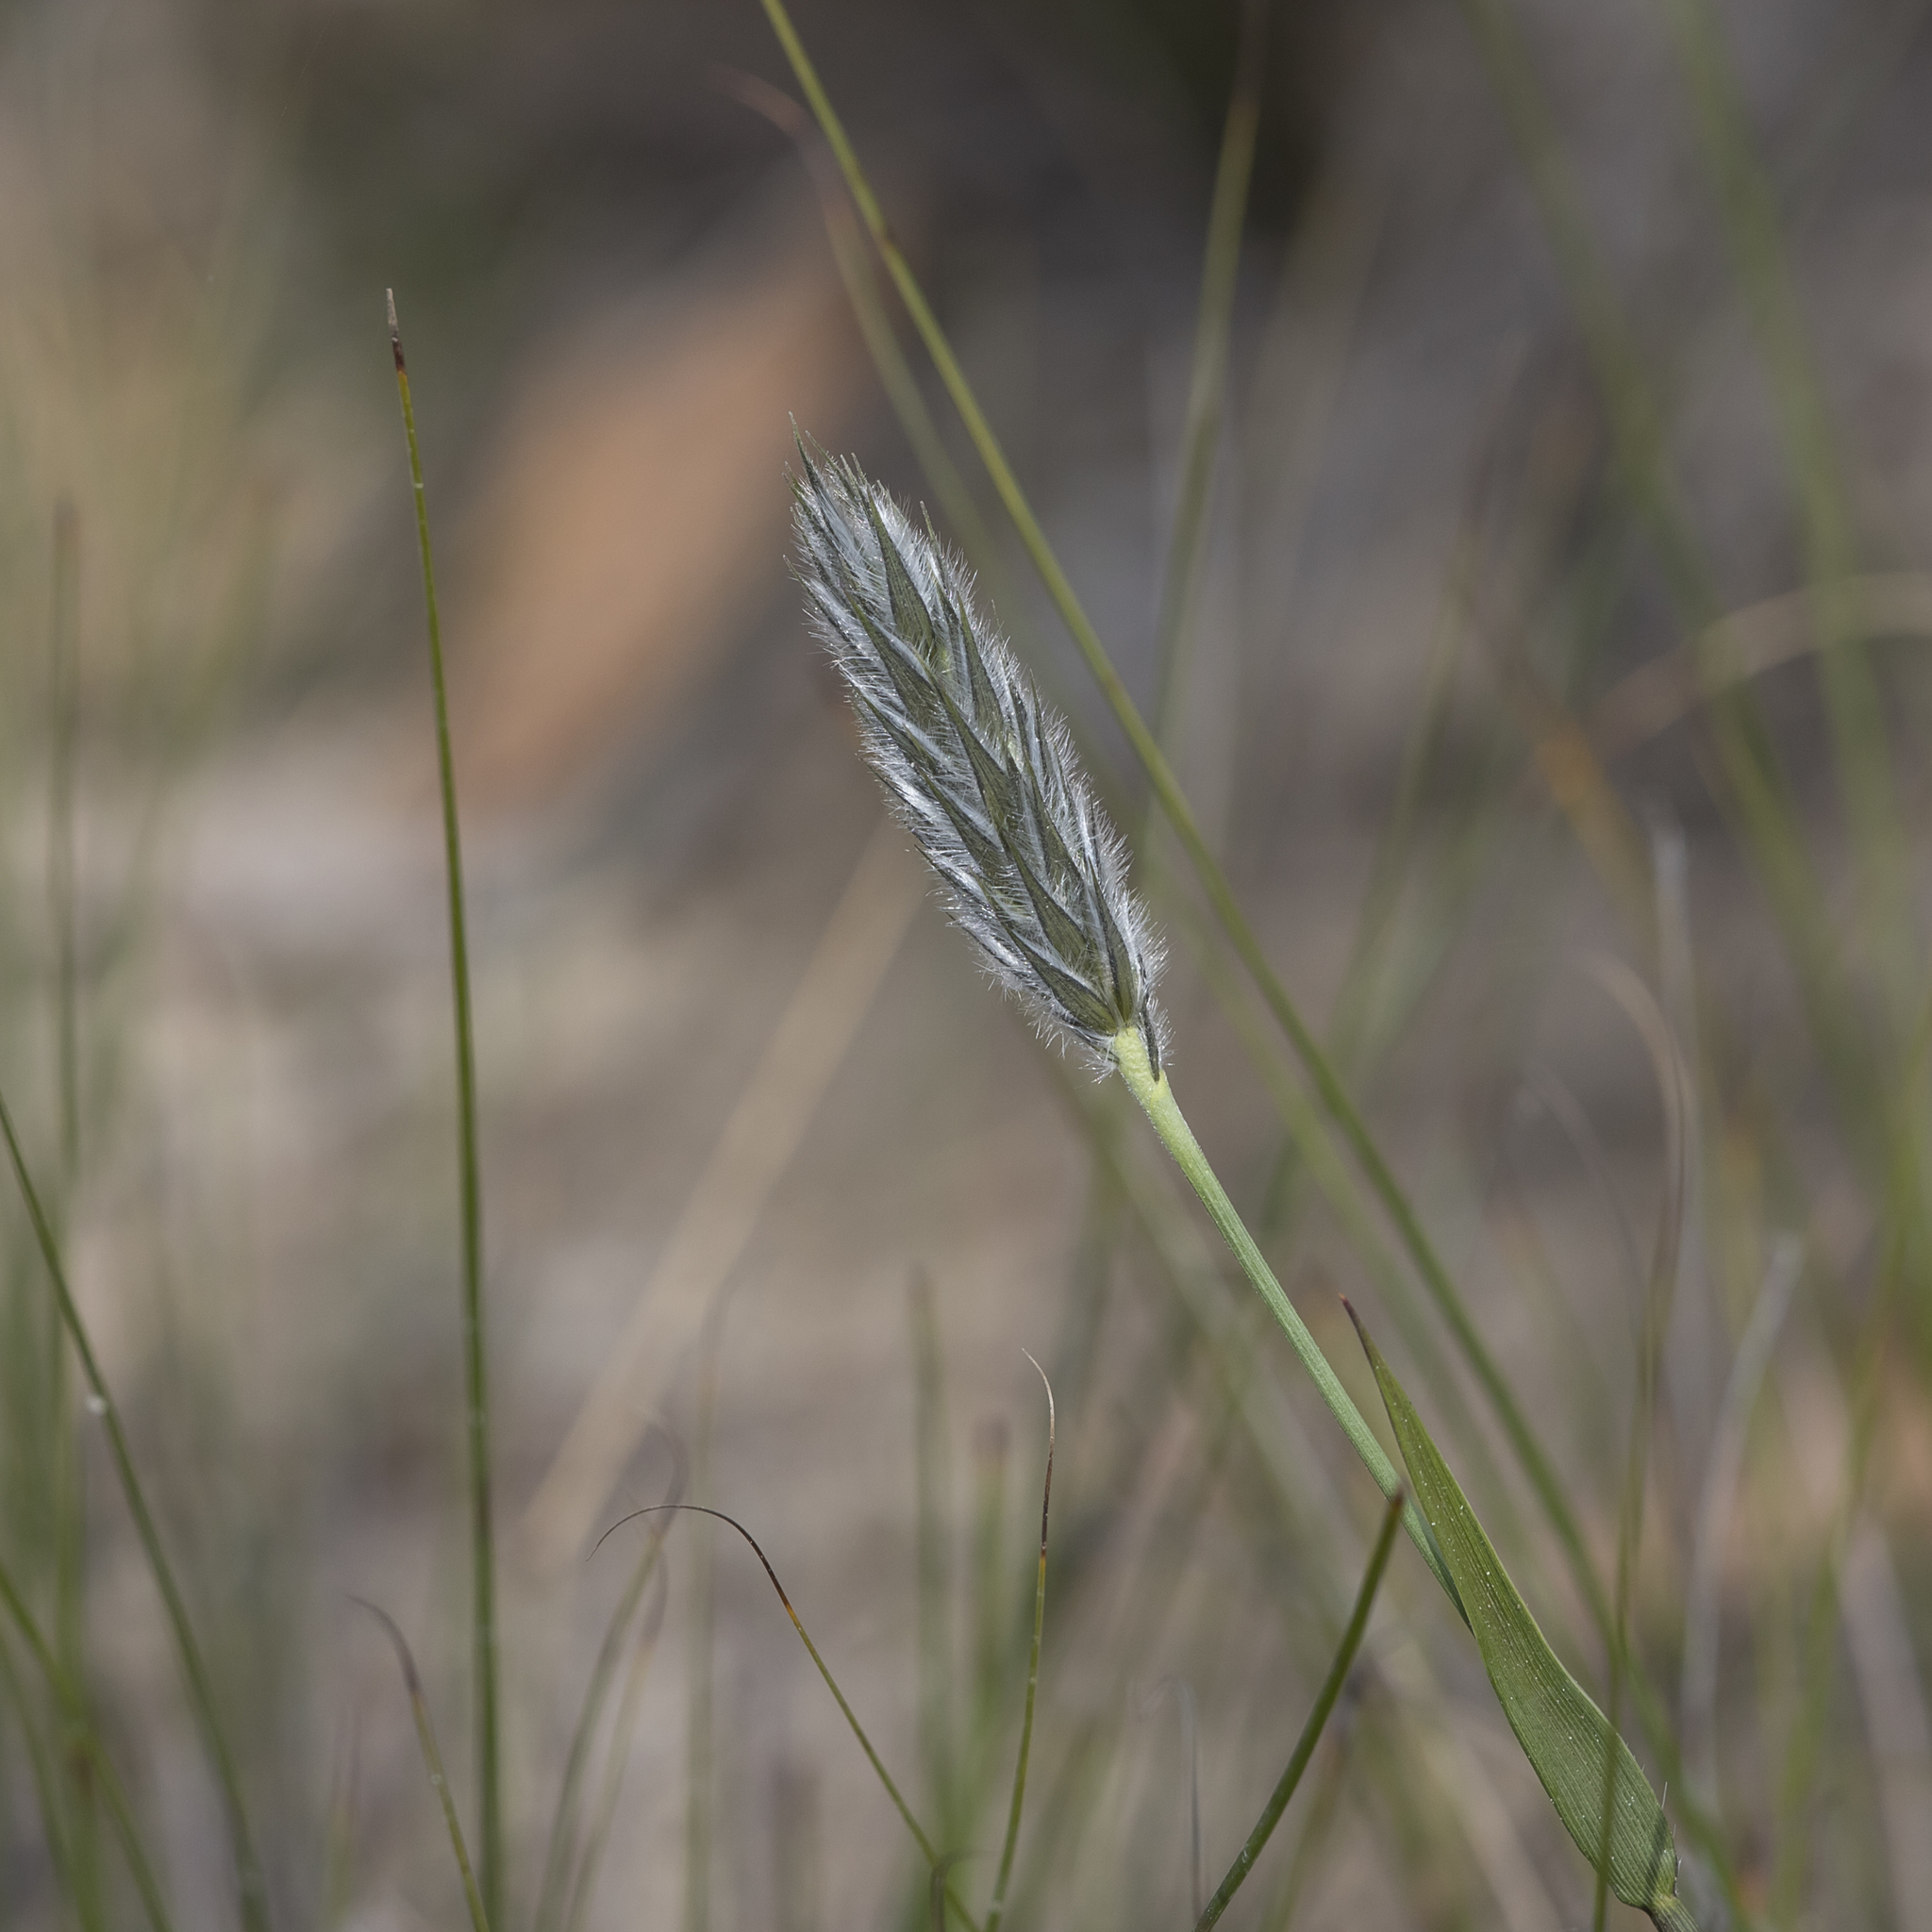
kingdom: Plantae
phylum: Tracheophyta
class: Liliopsida
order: Poales
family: Poaceae
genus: Neurachne
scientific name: Neurachne alopecuroidea
